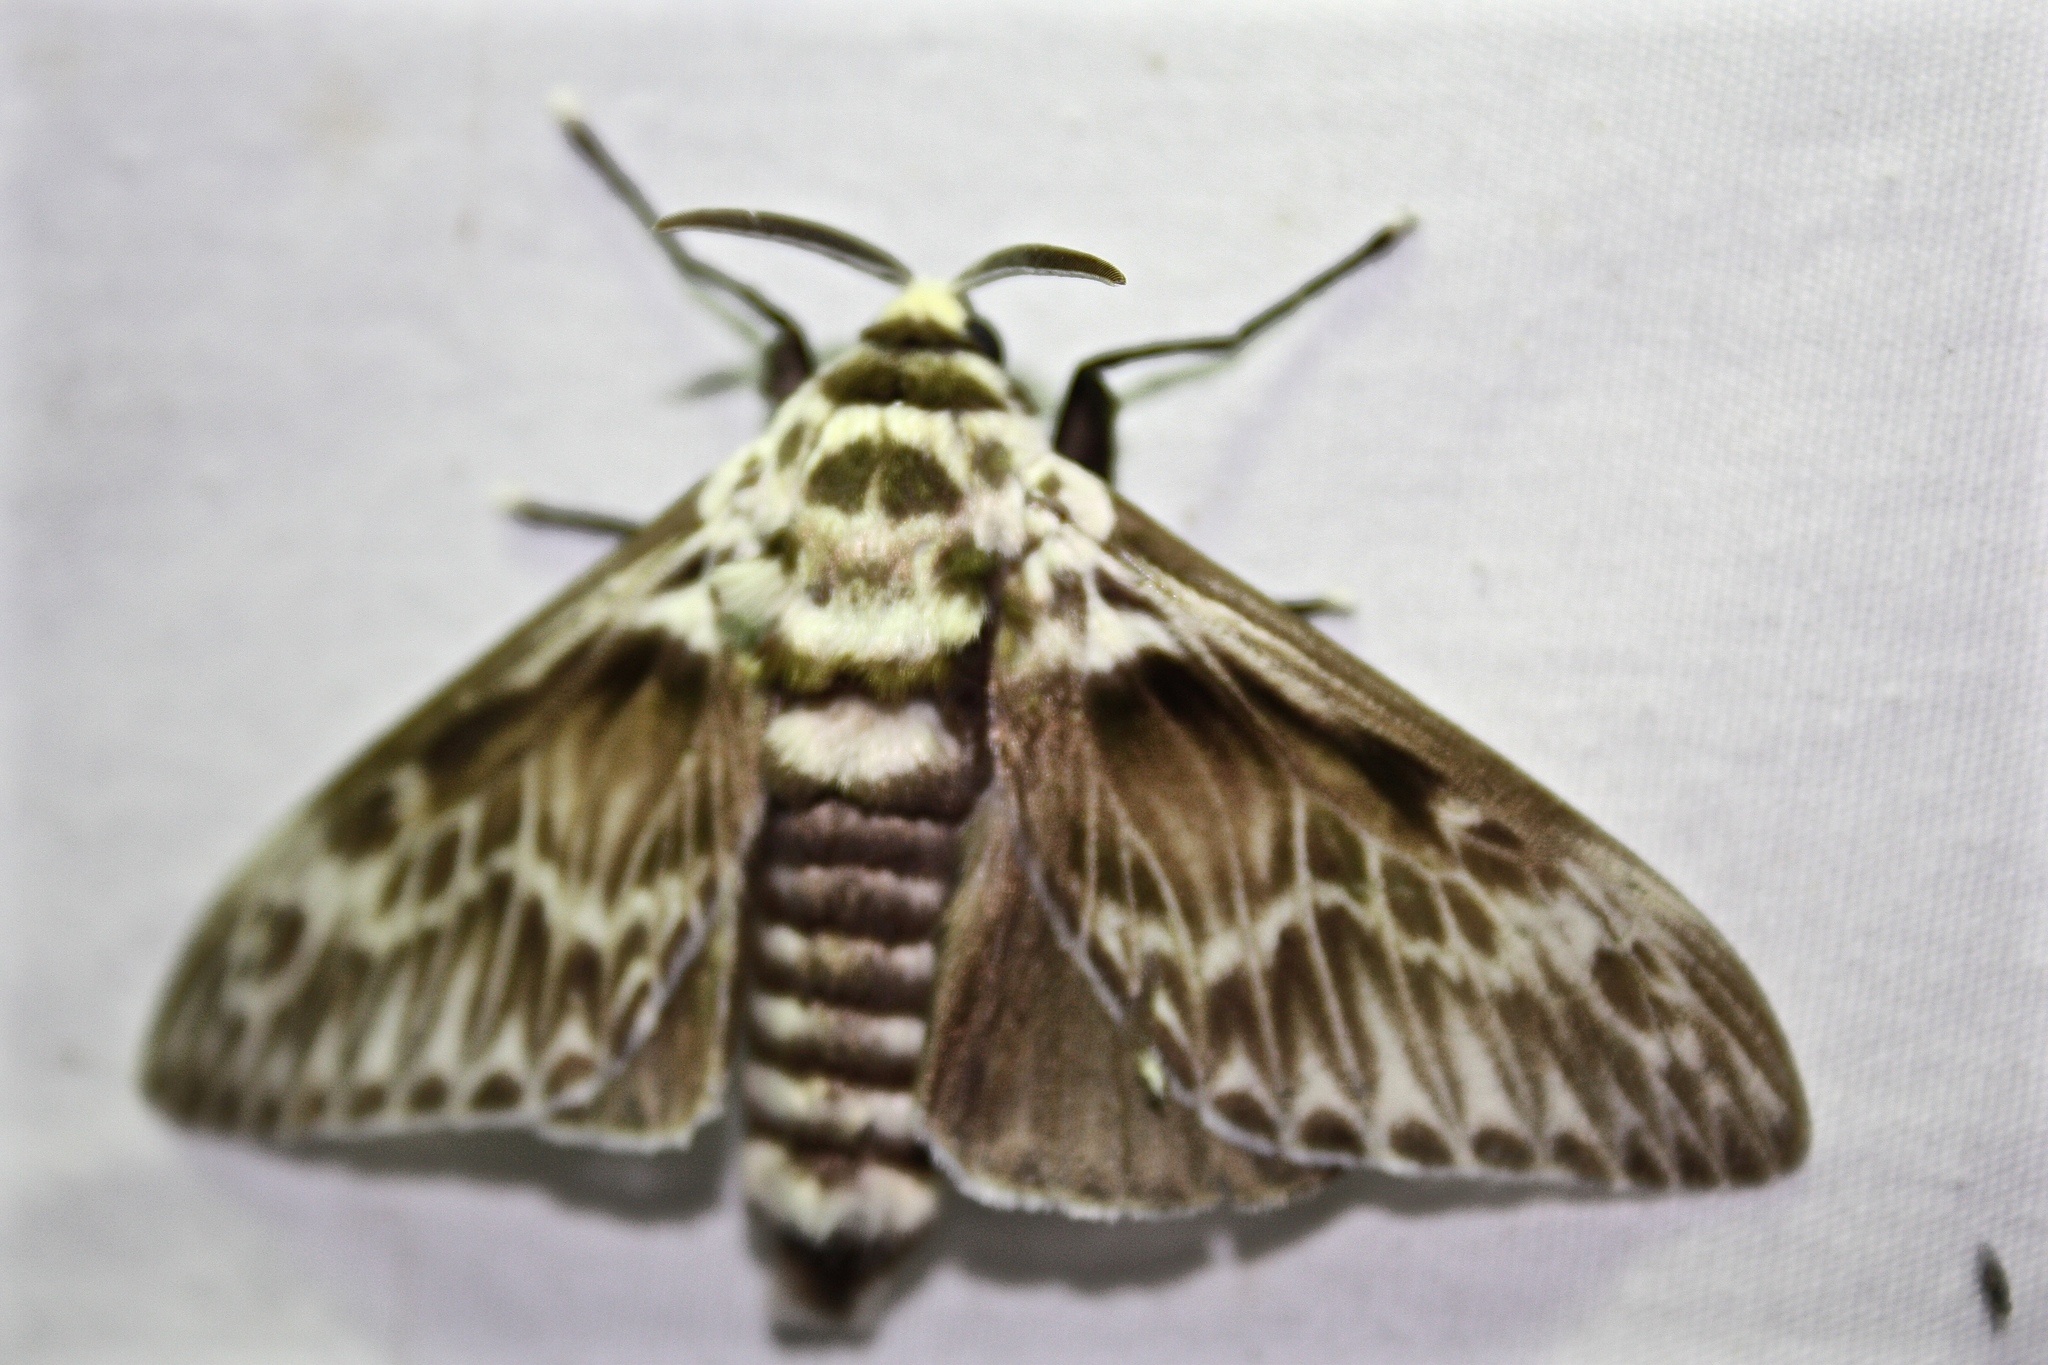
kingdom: Animalia
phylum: Arthropoda
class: Insecta
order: Lepidoptera
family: Megalopygidae
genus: Podalia
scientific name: Podalia orsilochus
